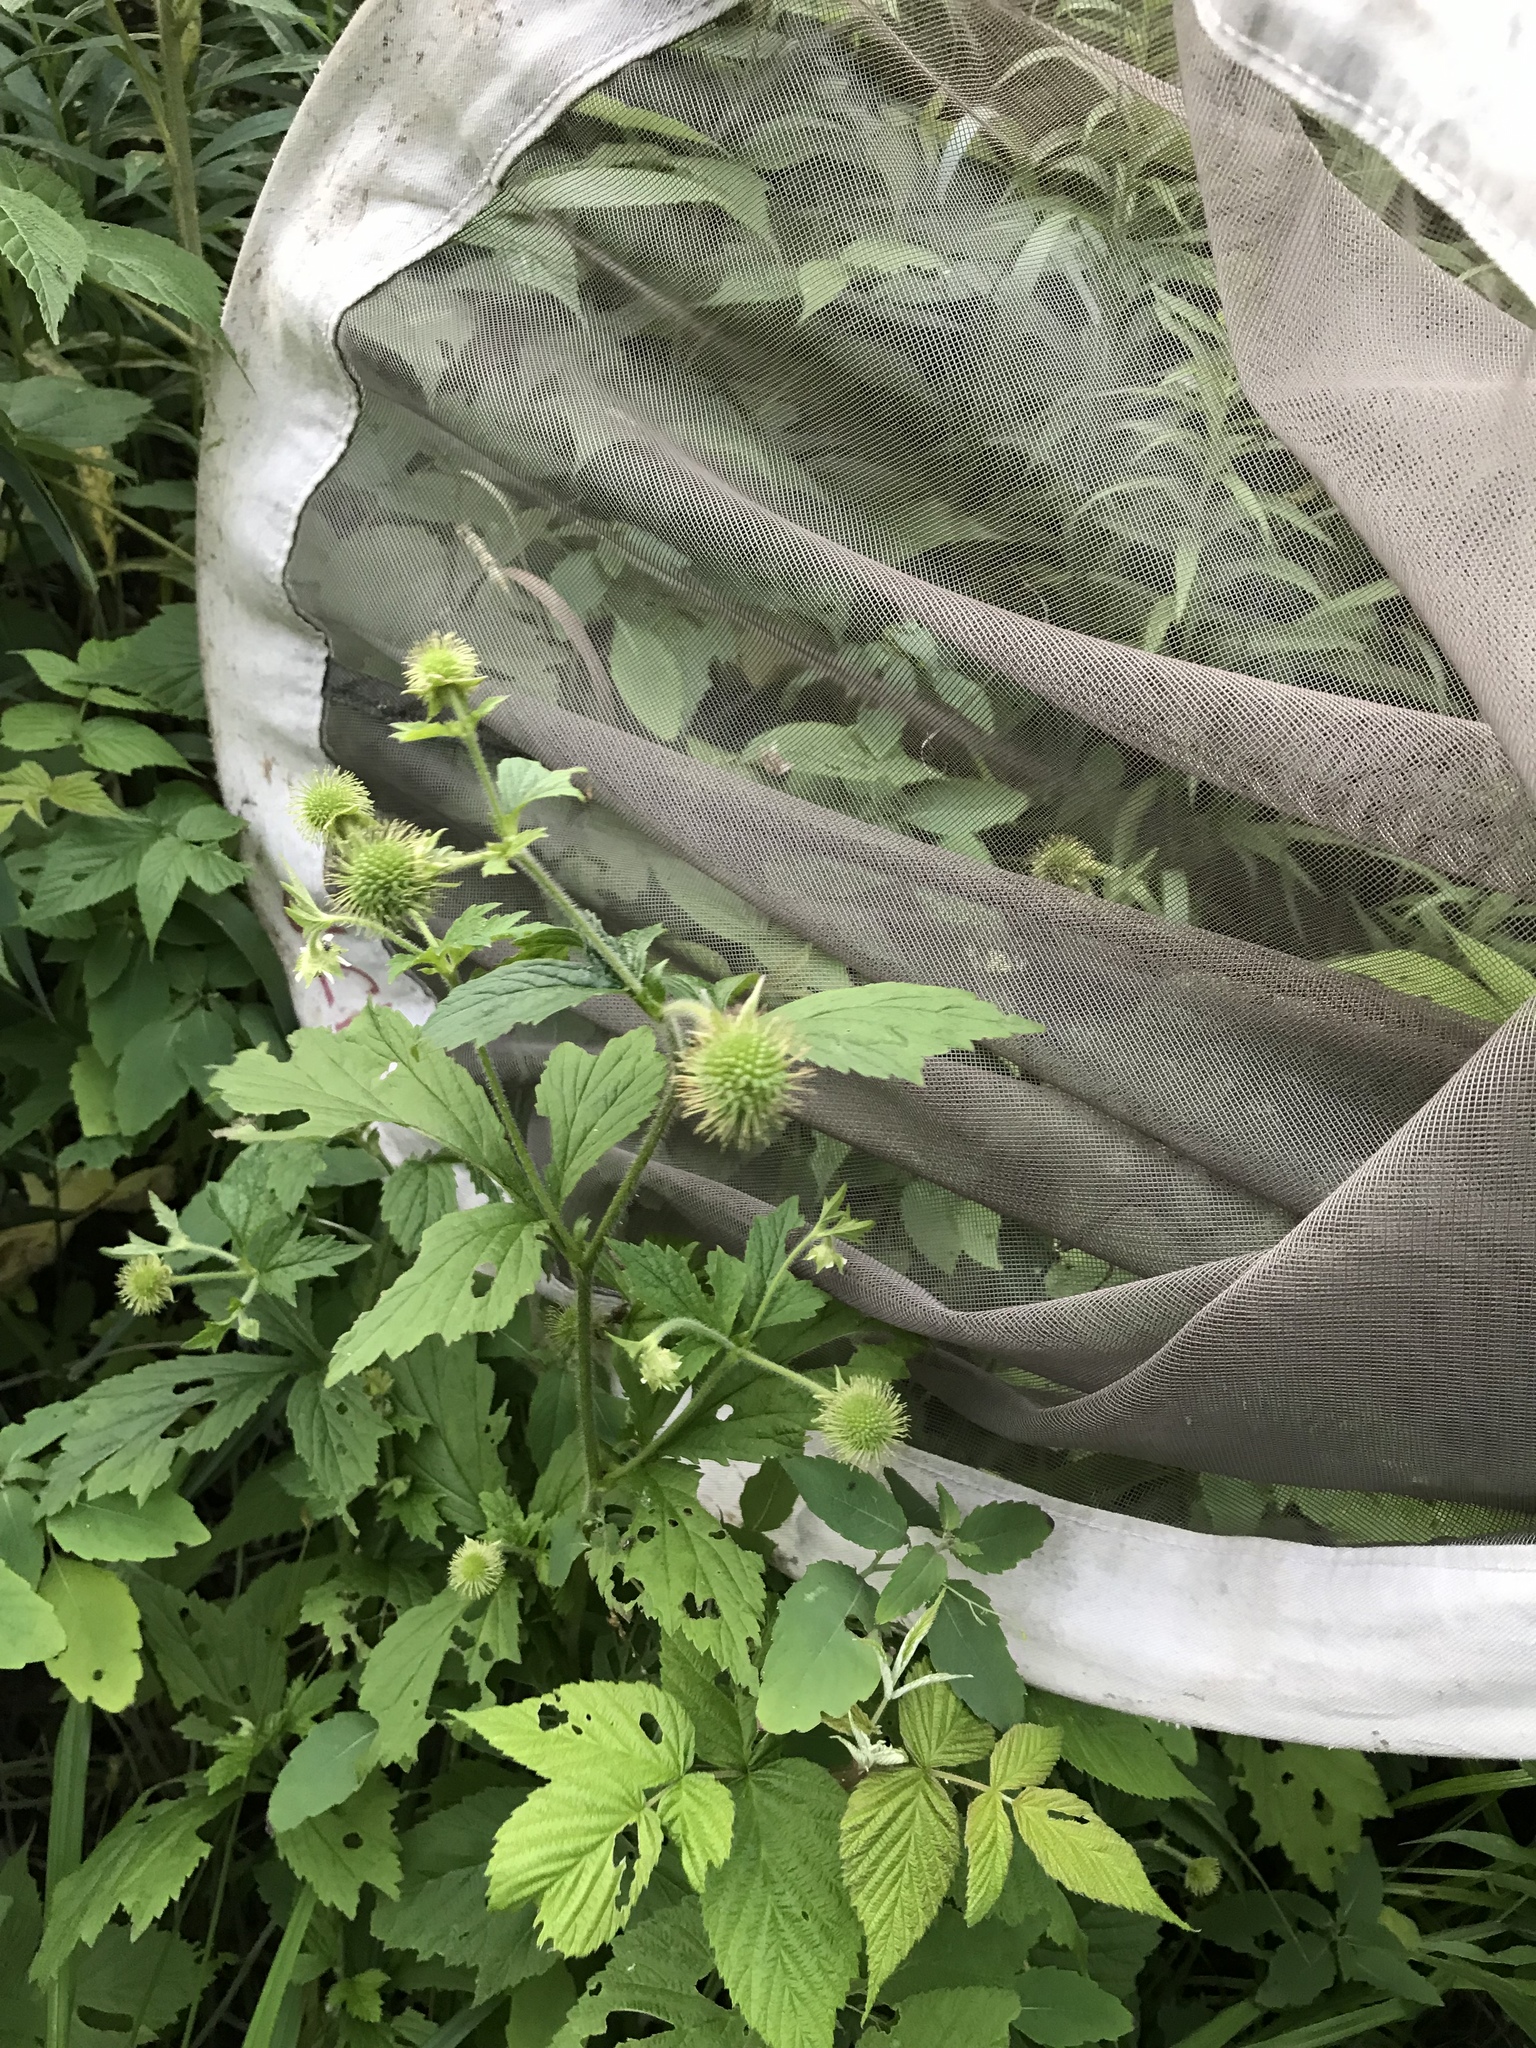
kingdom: Plantae
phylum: Tracheophyta
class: Magnoliopsida
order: Rosales
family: Rosaceae
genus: Geum
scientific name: Geum laciniatum
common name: Rough avens
